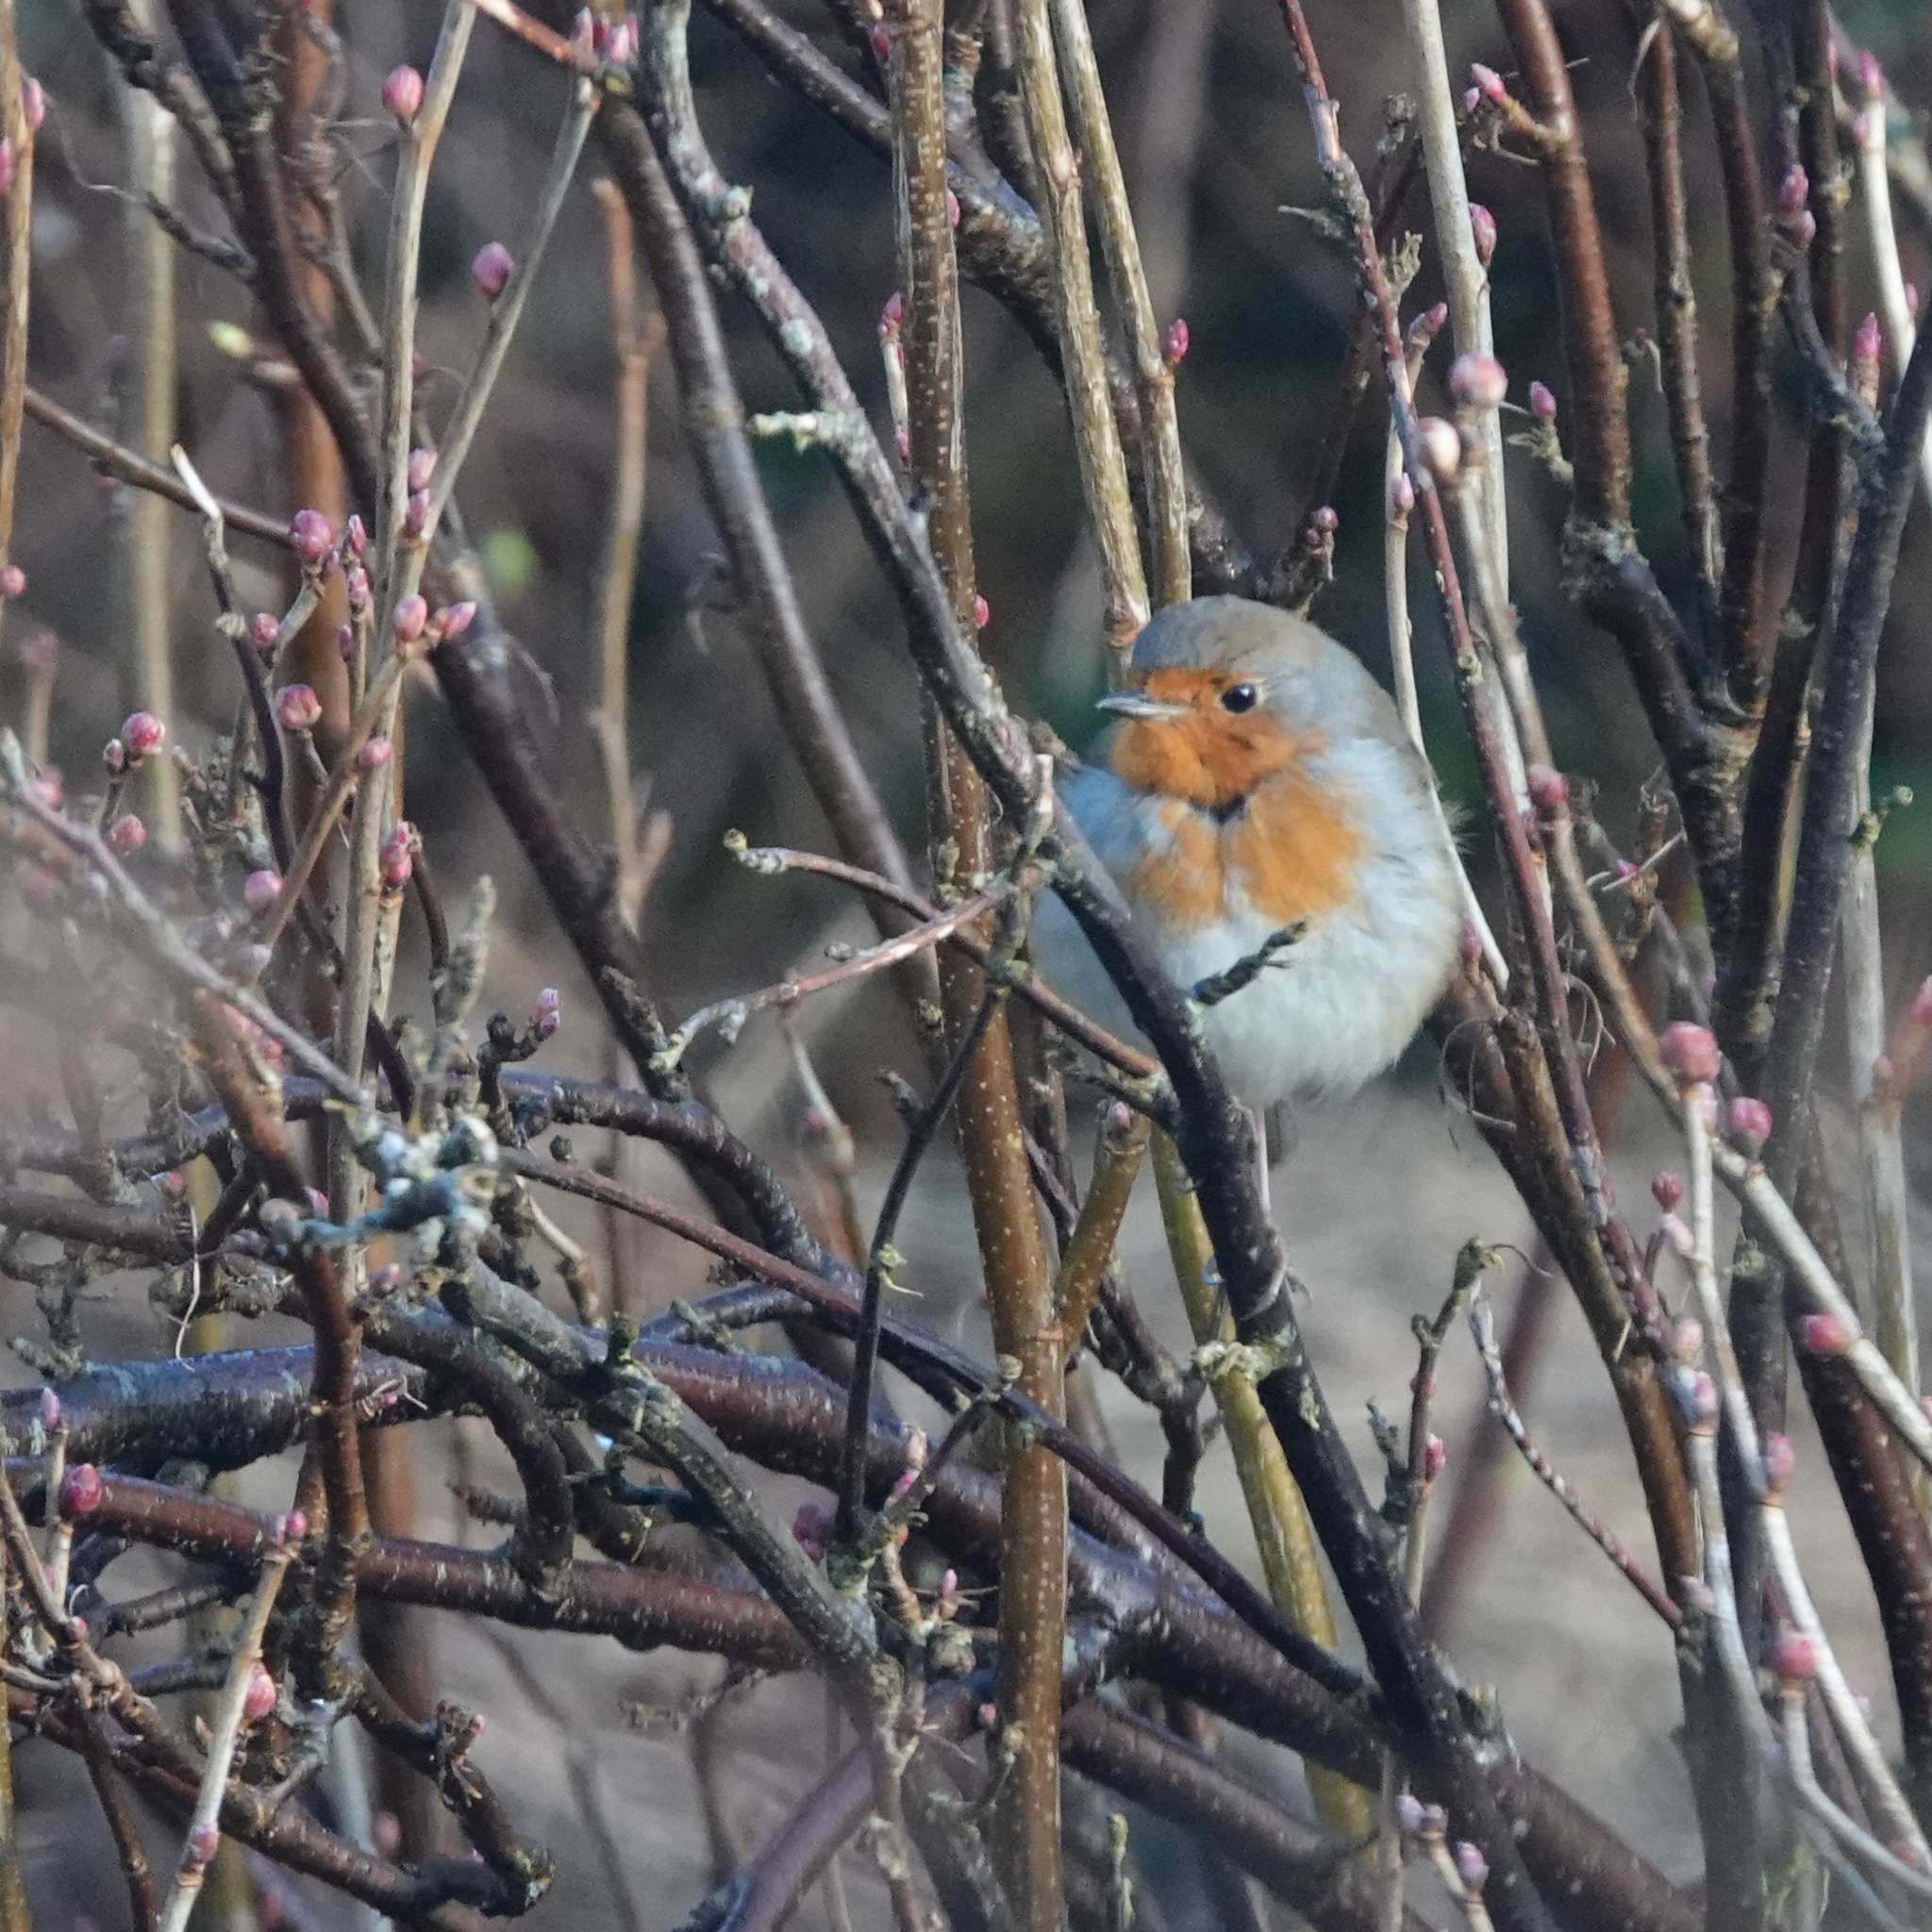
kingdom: Animalia
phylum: Chordata
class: Aves
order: Passeriformes
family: Muscicapidae
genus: Erithacus
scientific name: Erithacus rubecula
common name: European robin
